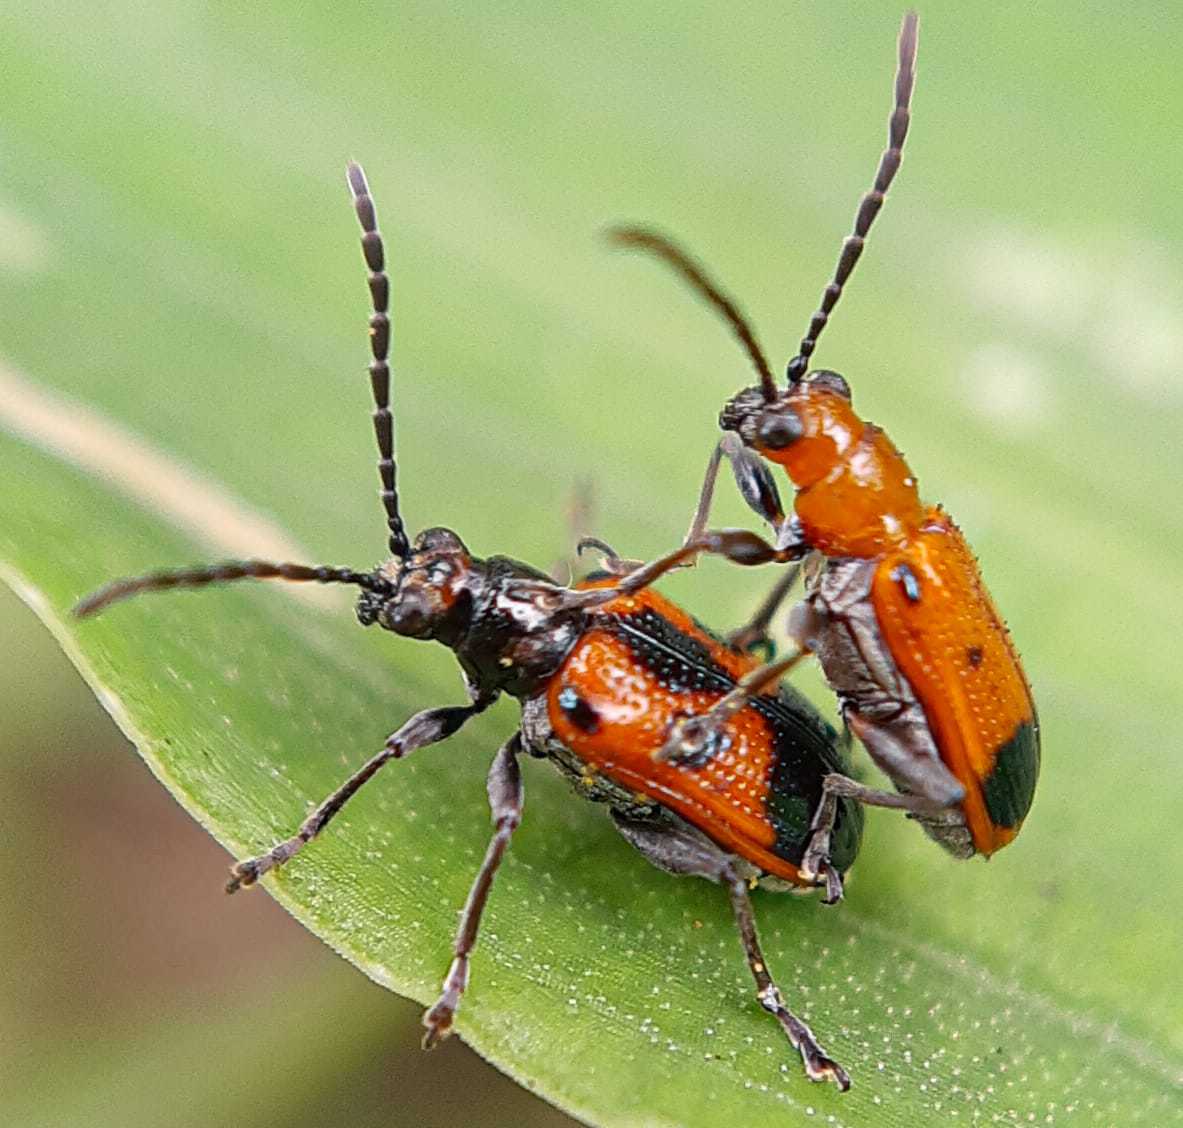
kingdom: Animalia
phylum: Arthropoda
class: Insecta
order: Coleoptera
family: Chrysomelidae
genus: Neolema
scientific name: Neolema dorsalis
